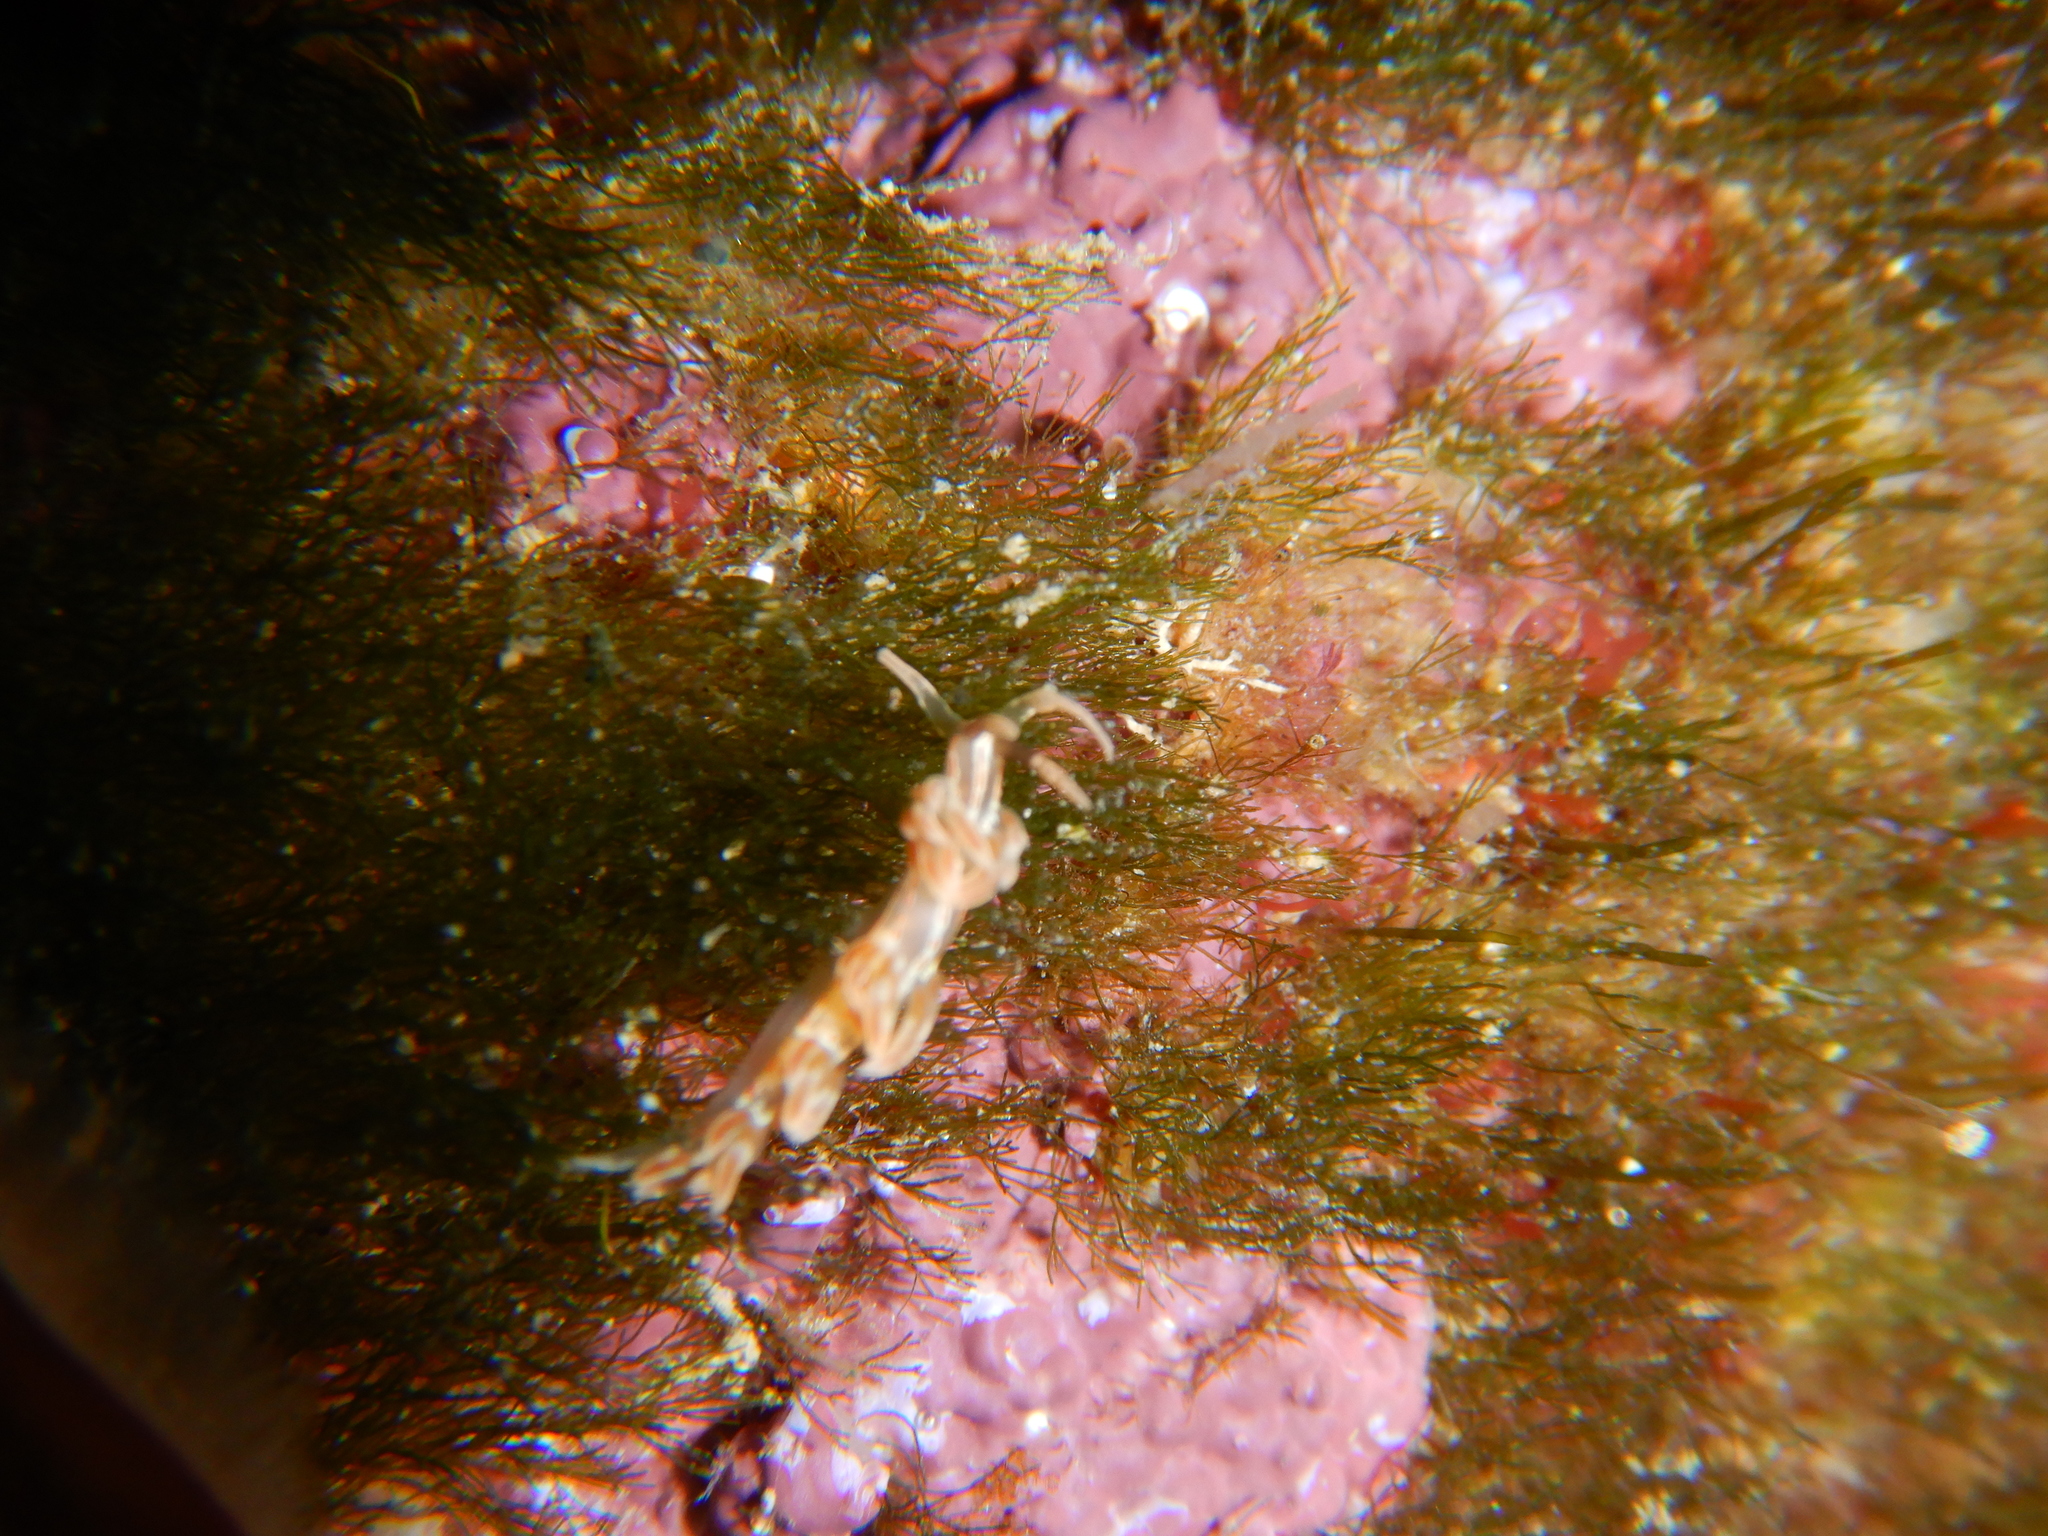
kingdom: Animalia
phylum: Mollusca
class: Gastropoda
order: Nudibranchia
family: Facelinidae
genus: Facelina
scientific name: Facelina rubrovittata
